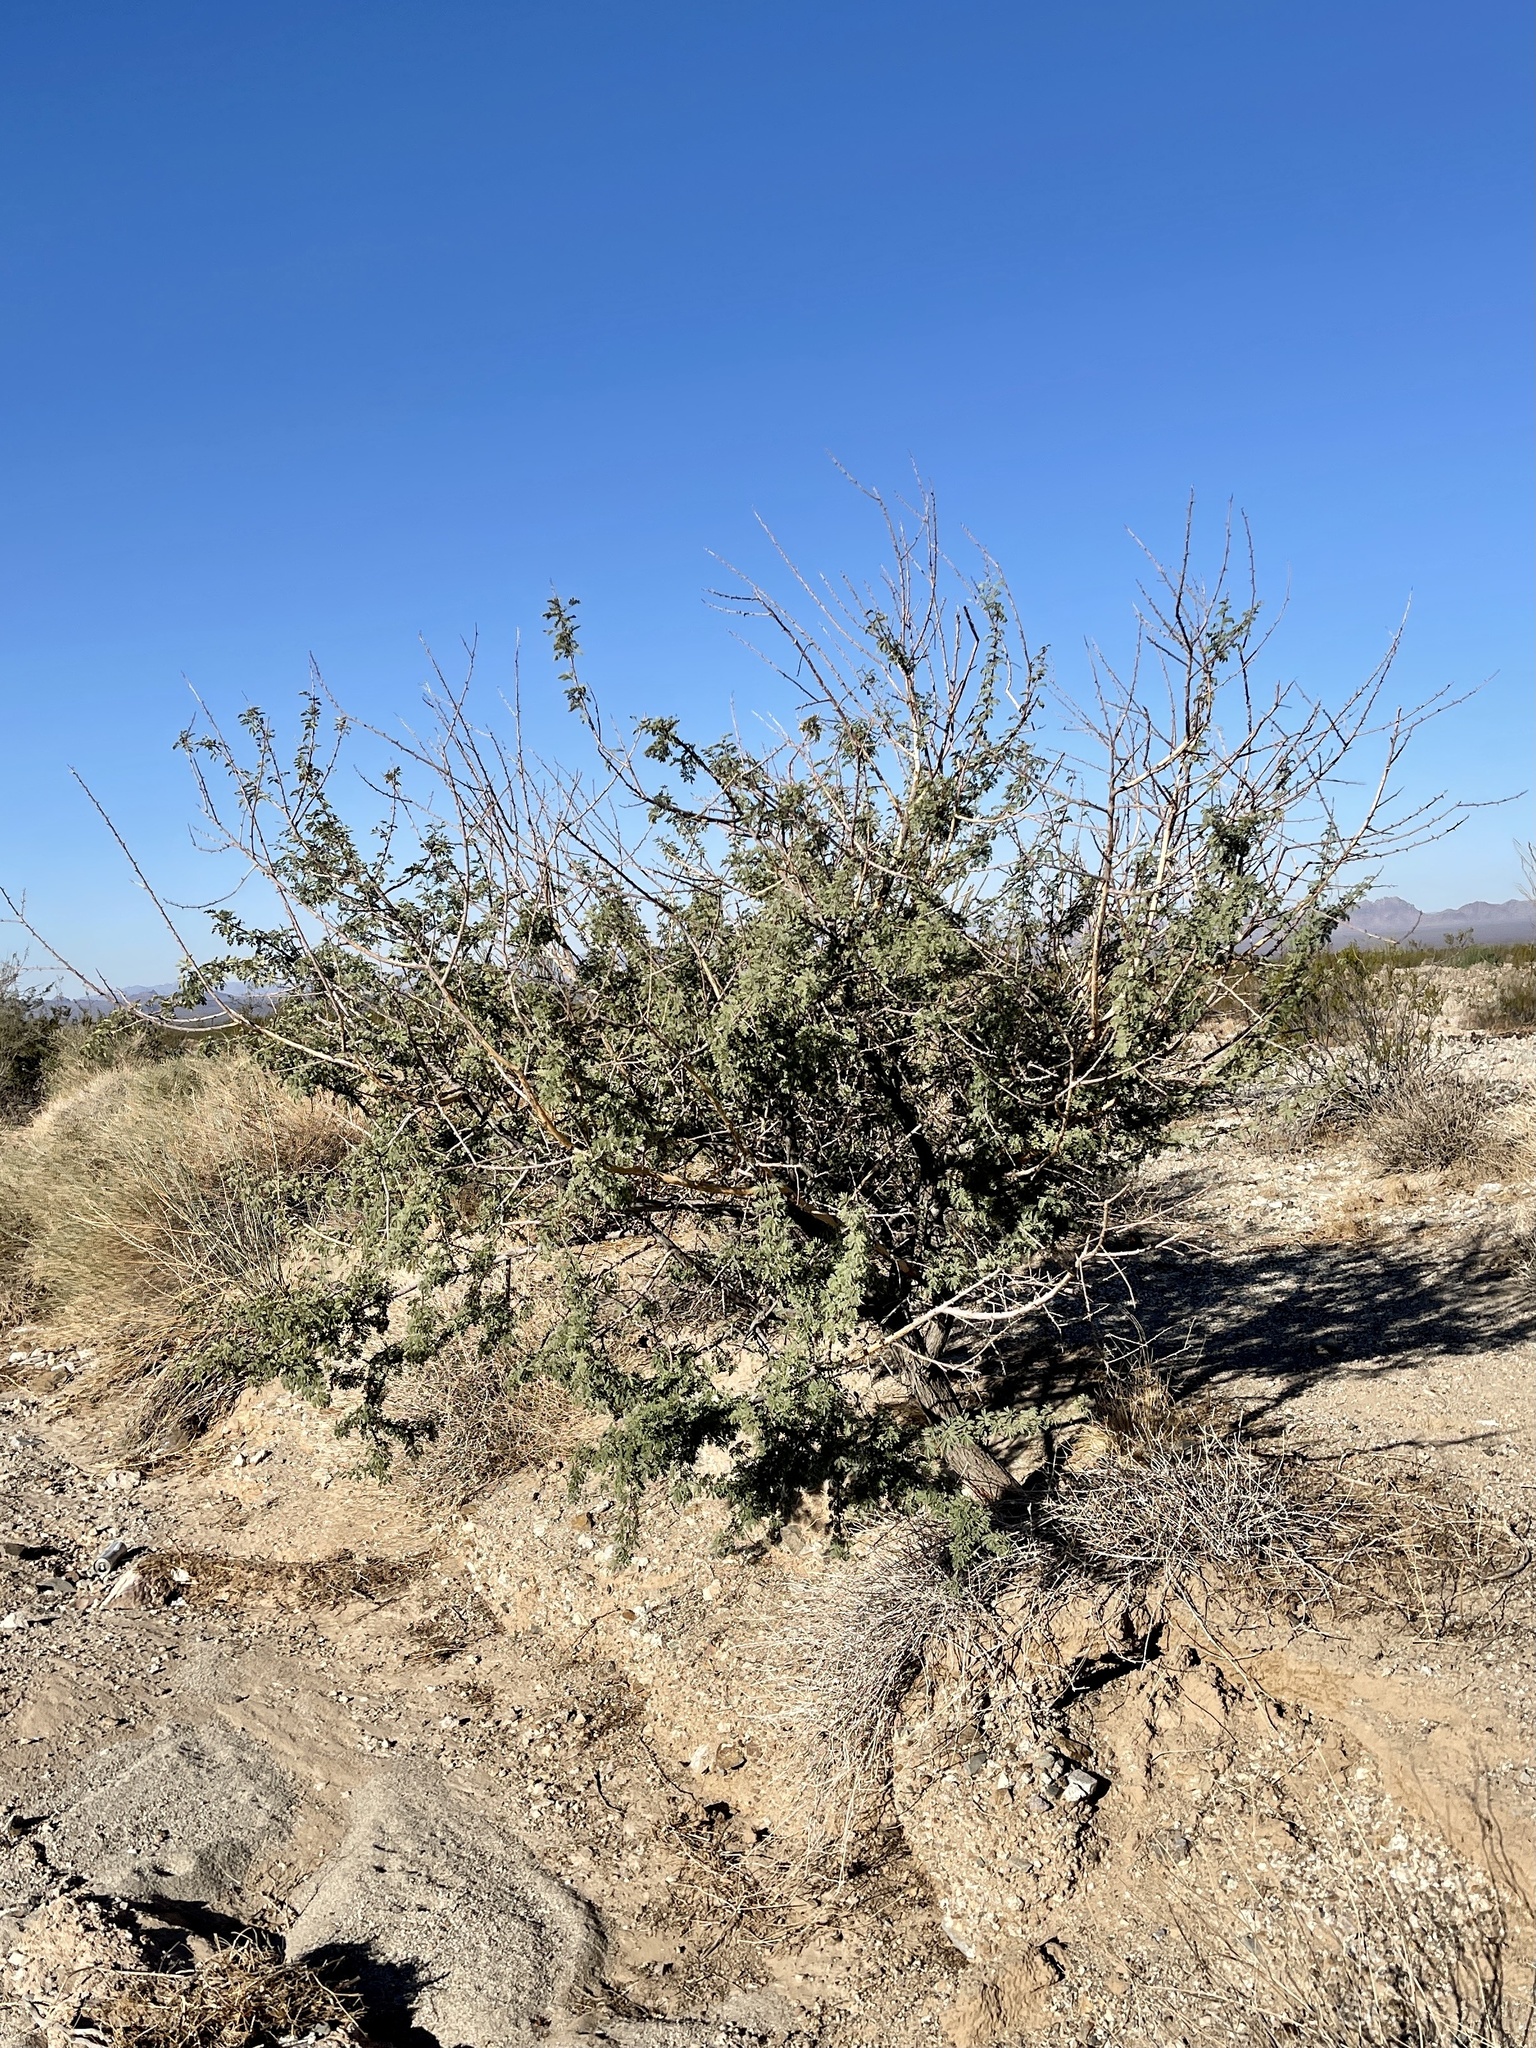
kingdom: Plantae
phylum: Tracheophyta
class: Magnoliopsida
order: Fabales
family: Fabaceae
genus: Senegalia
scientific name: Senegalia greggii
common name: Texas-mimosa
